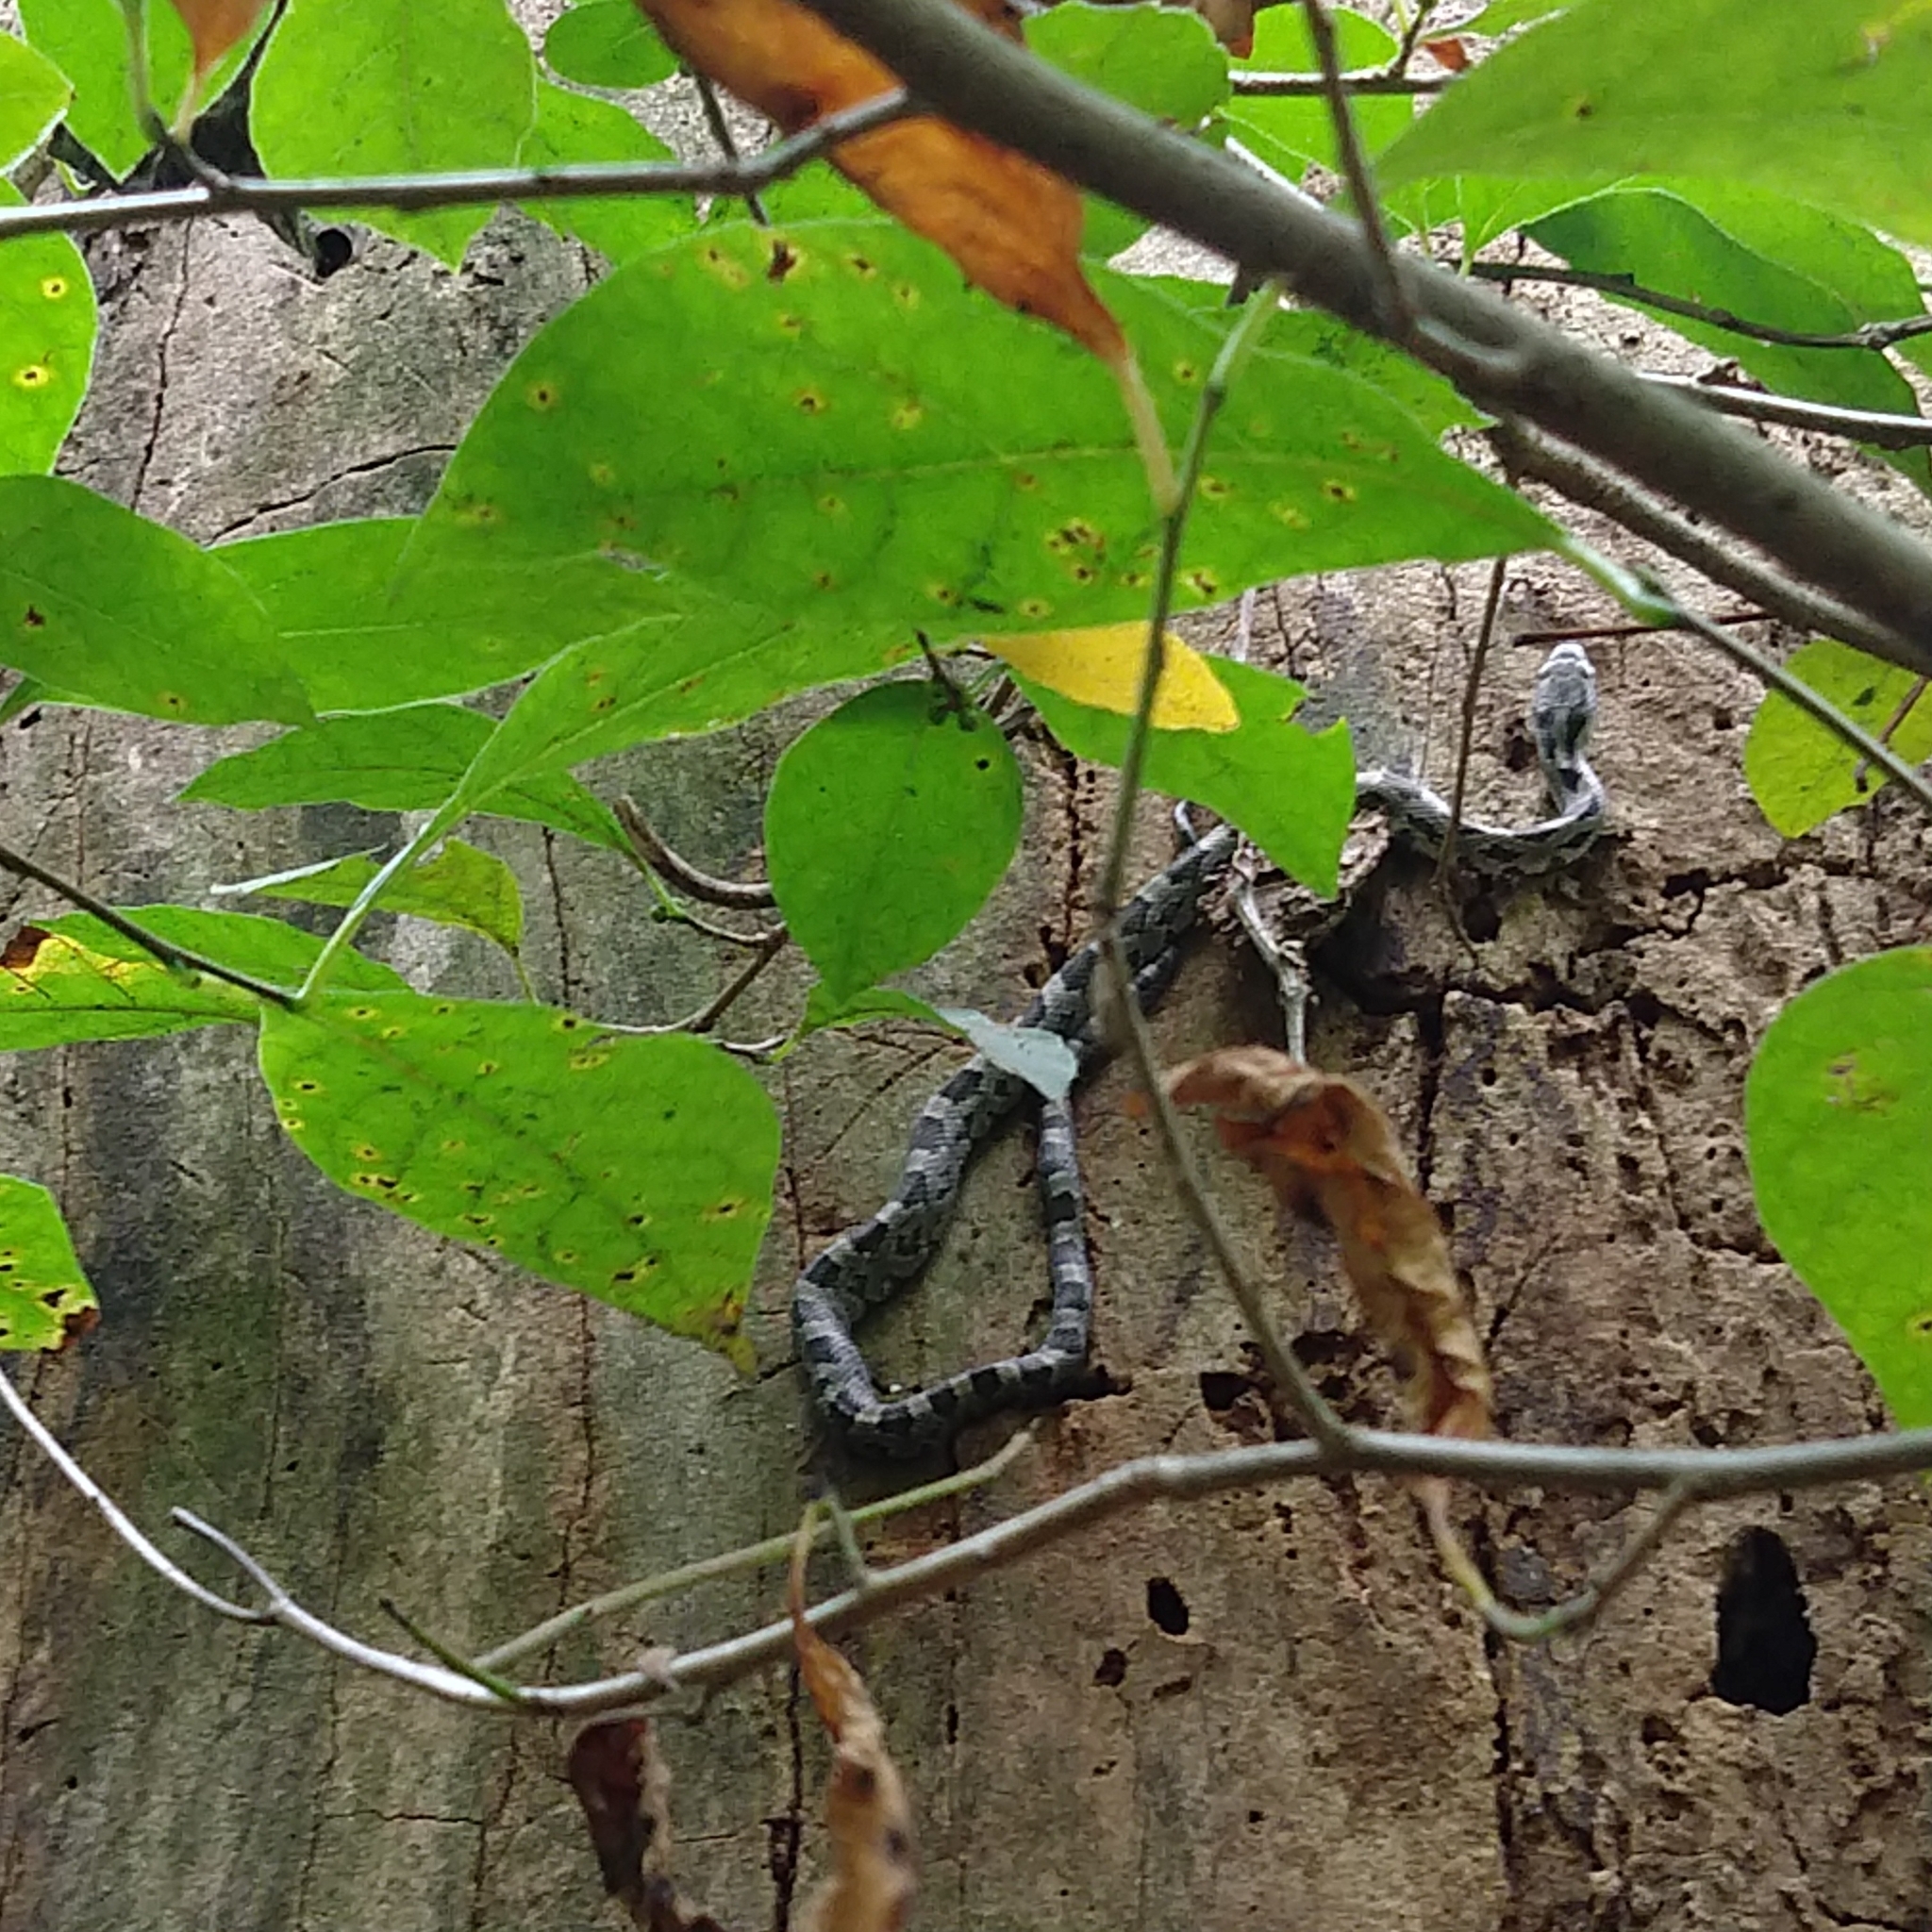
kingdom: Animalia
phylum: Chordata
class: Squamata
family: Colubridae
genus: Pantherophis
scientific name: Pantherophis alleghaniensis
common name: Eastern rat snake
